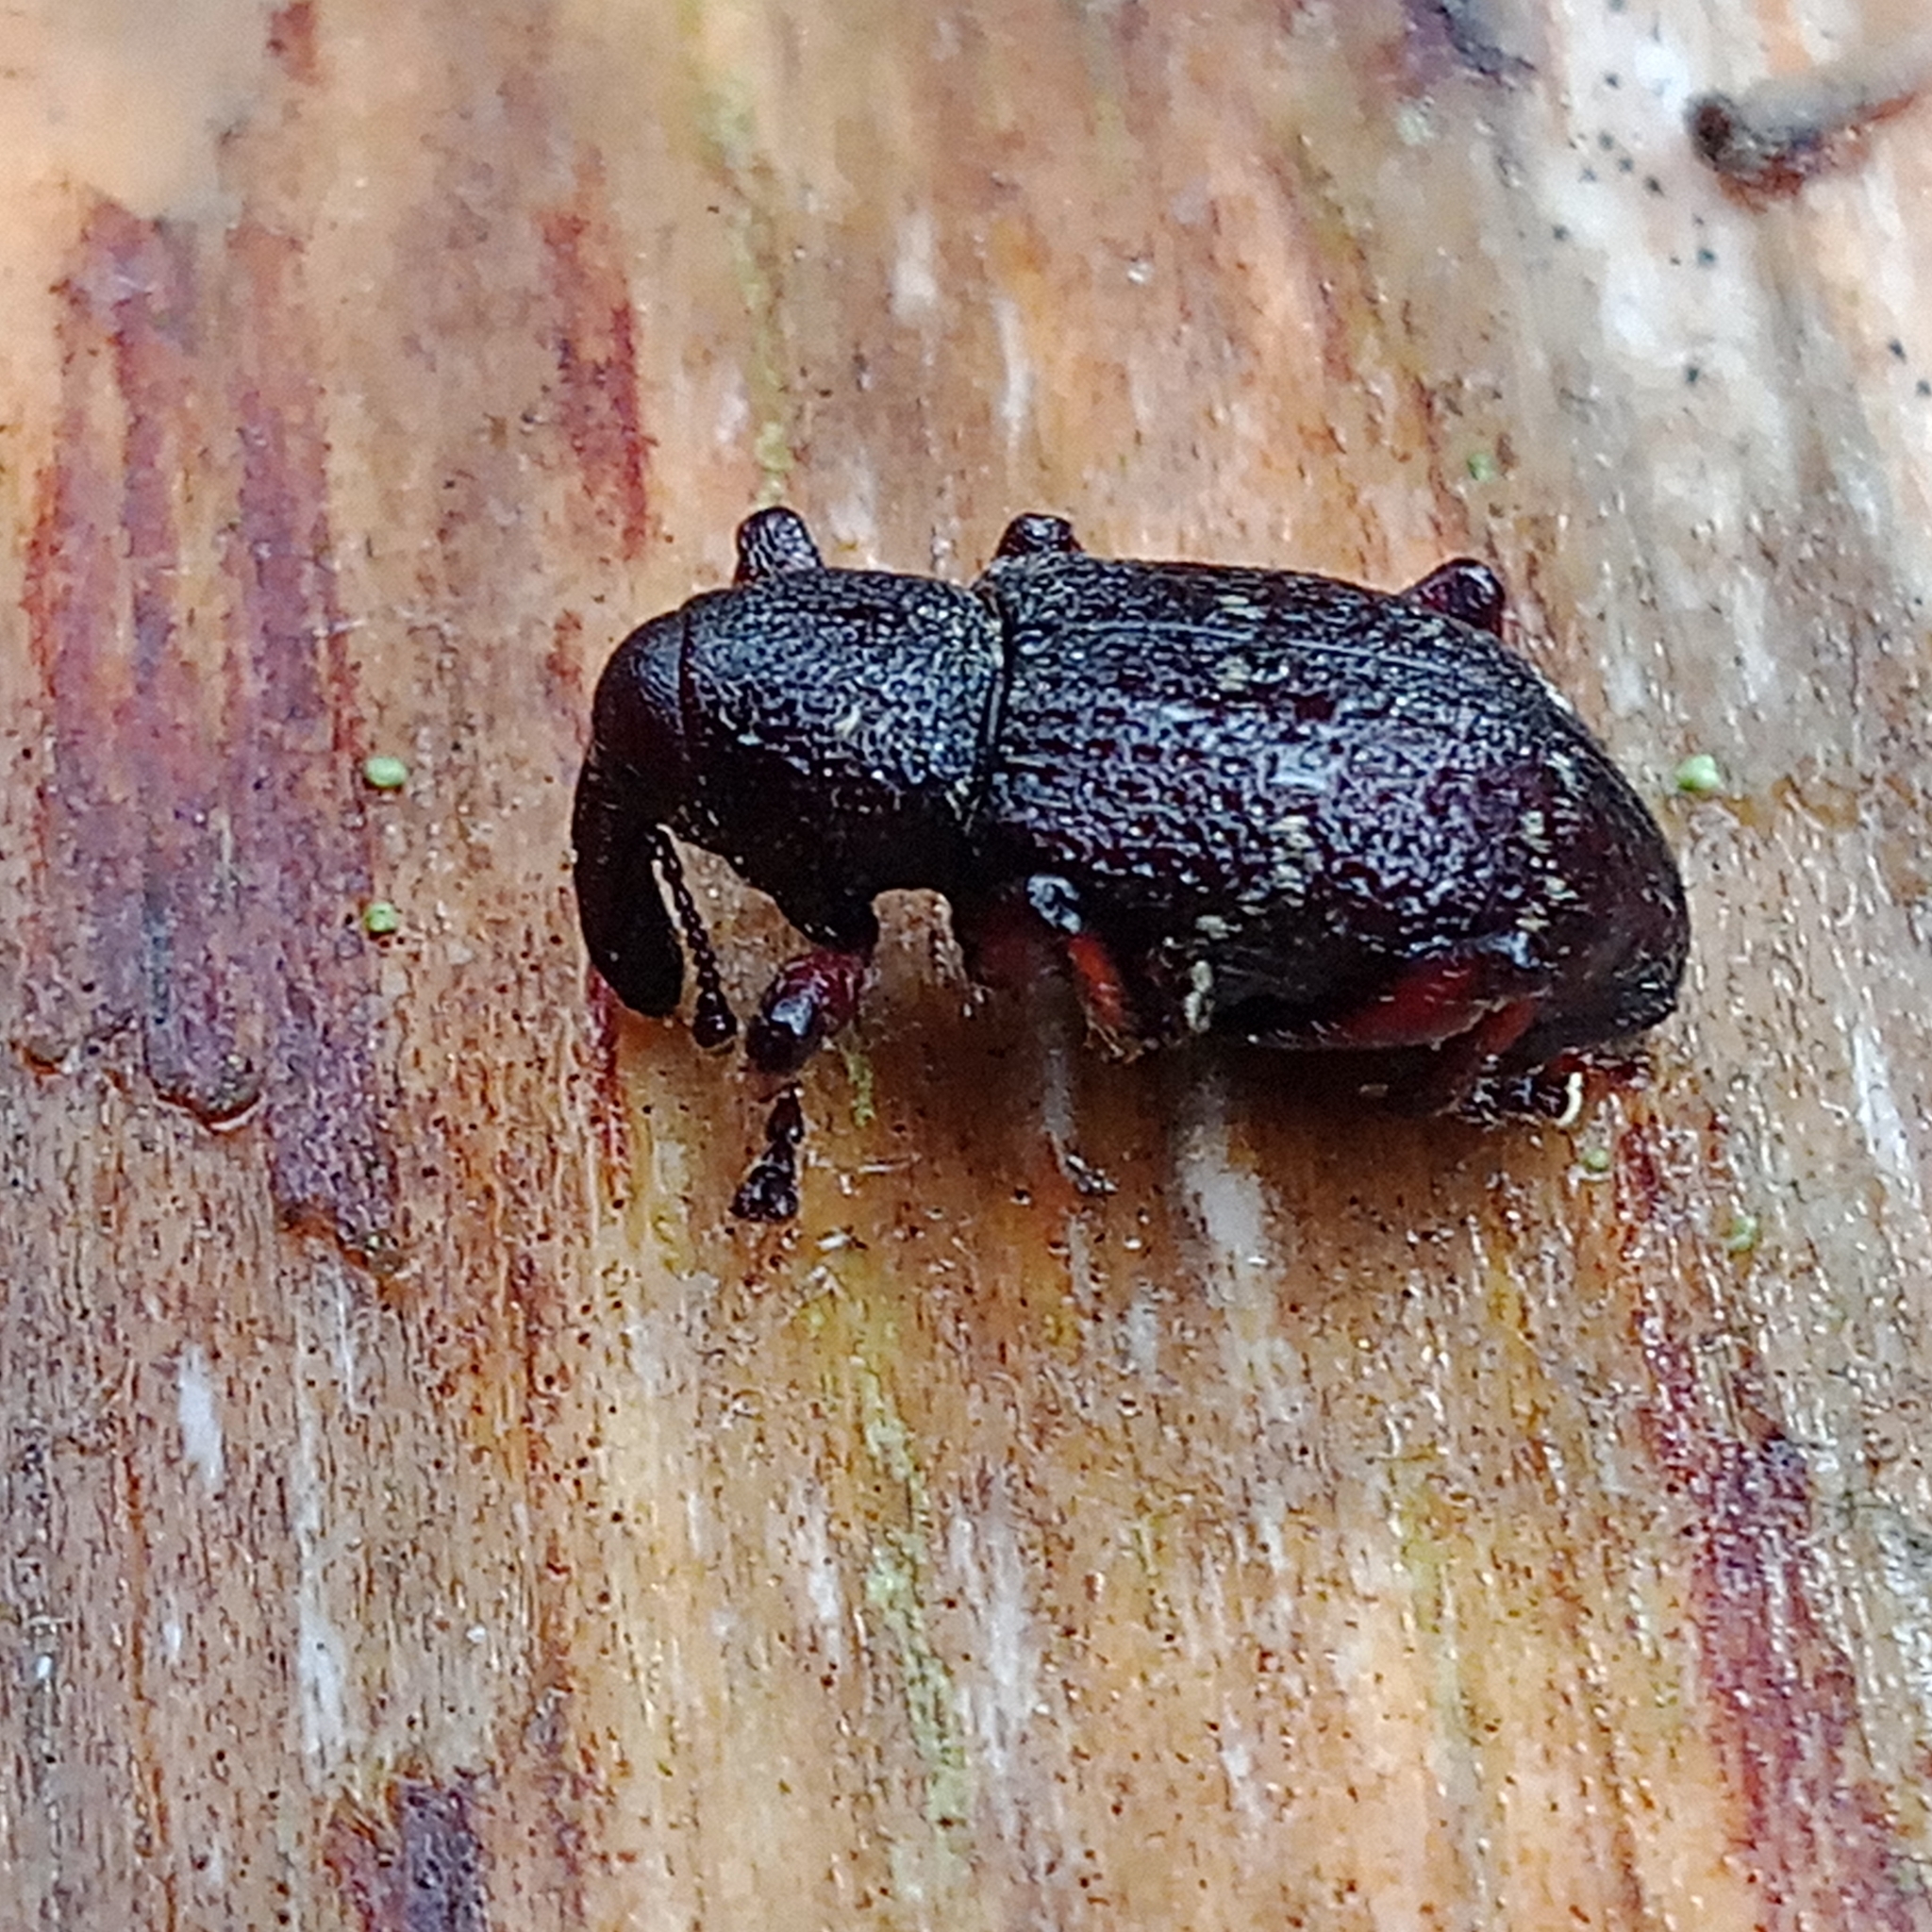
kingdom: Animalia
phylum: Arthropoda
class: Insecta
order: Coleoptera
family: Curculionidae
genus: Hylobius
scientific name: Hylobius pinastri
